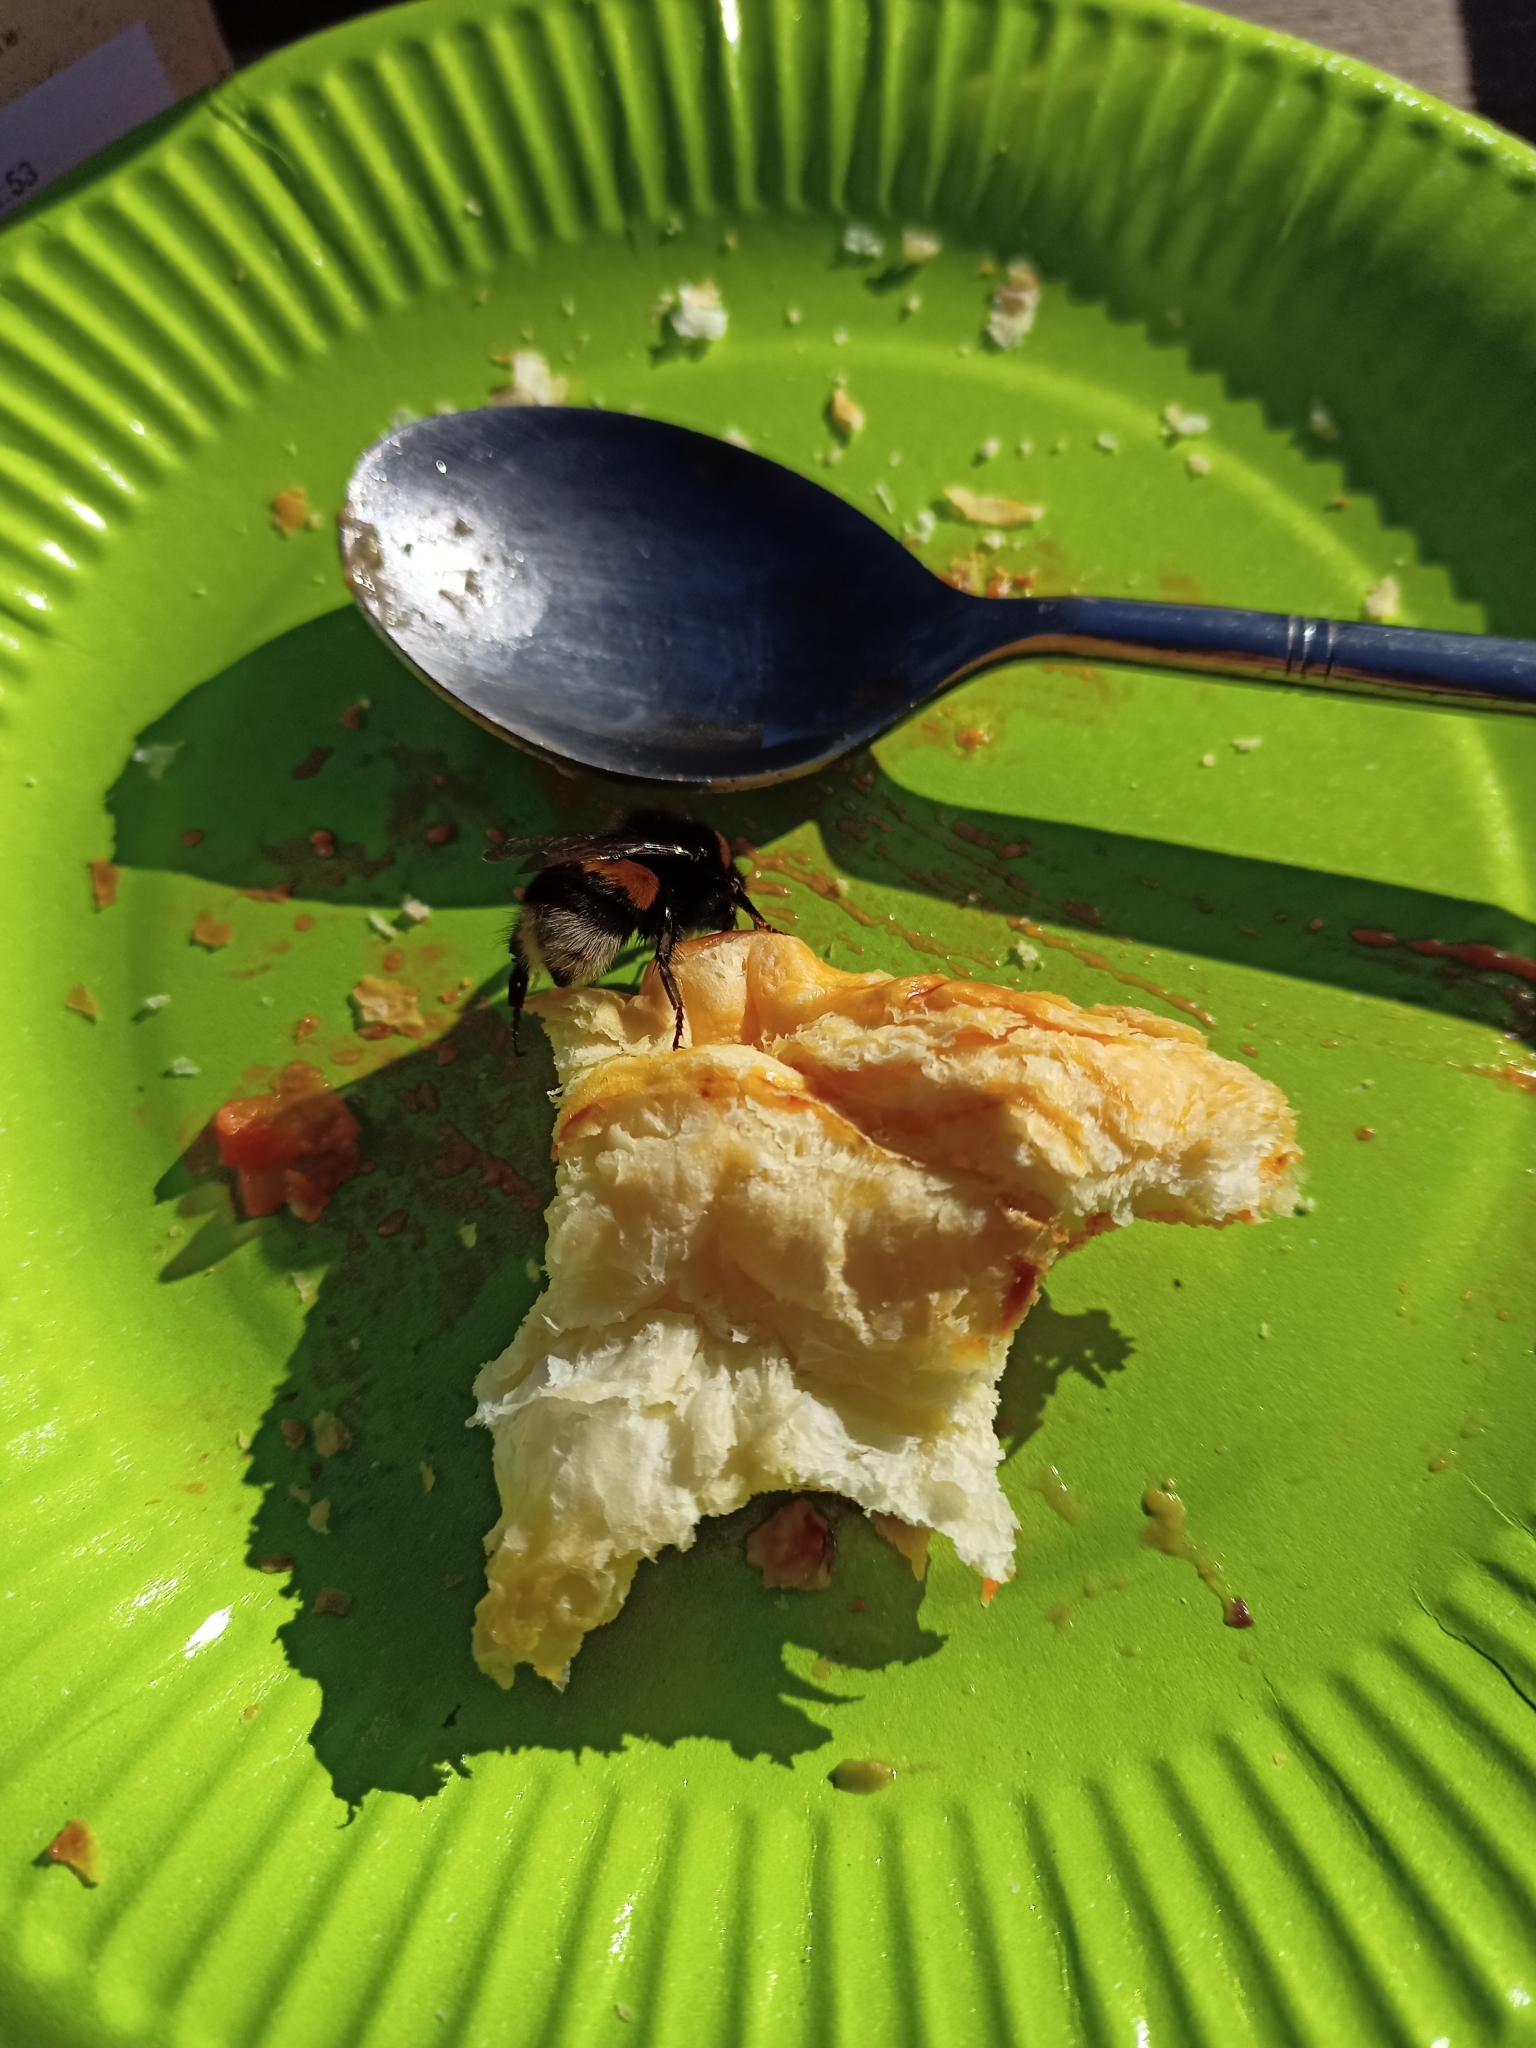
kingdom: Animalia
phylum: Arthropoda
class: Insecta
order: Hymenoptera
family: Apidae
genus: Bombus
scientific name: Bombus terrestris
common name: Buff-tailed bumblebee
